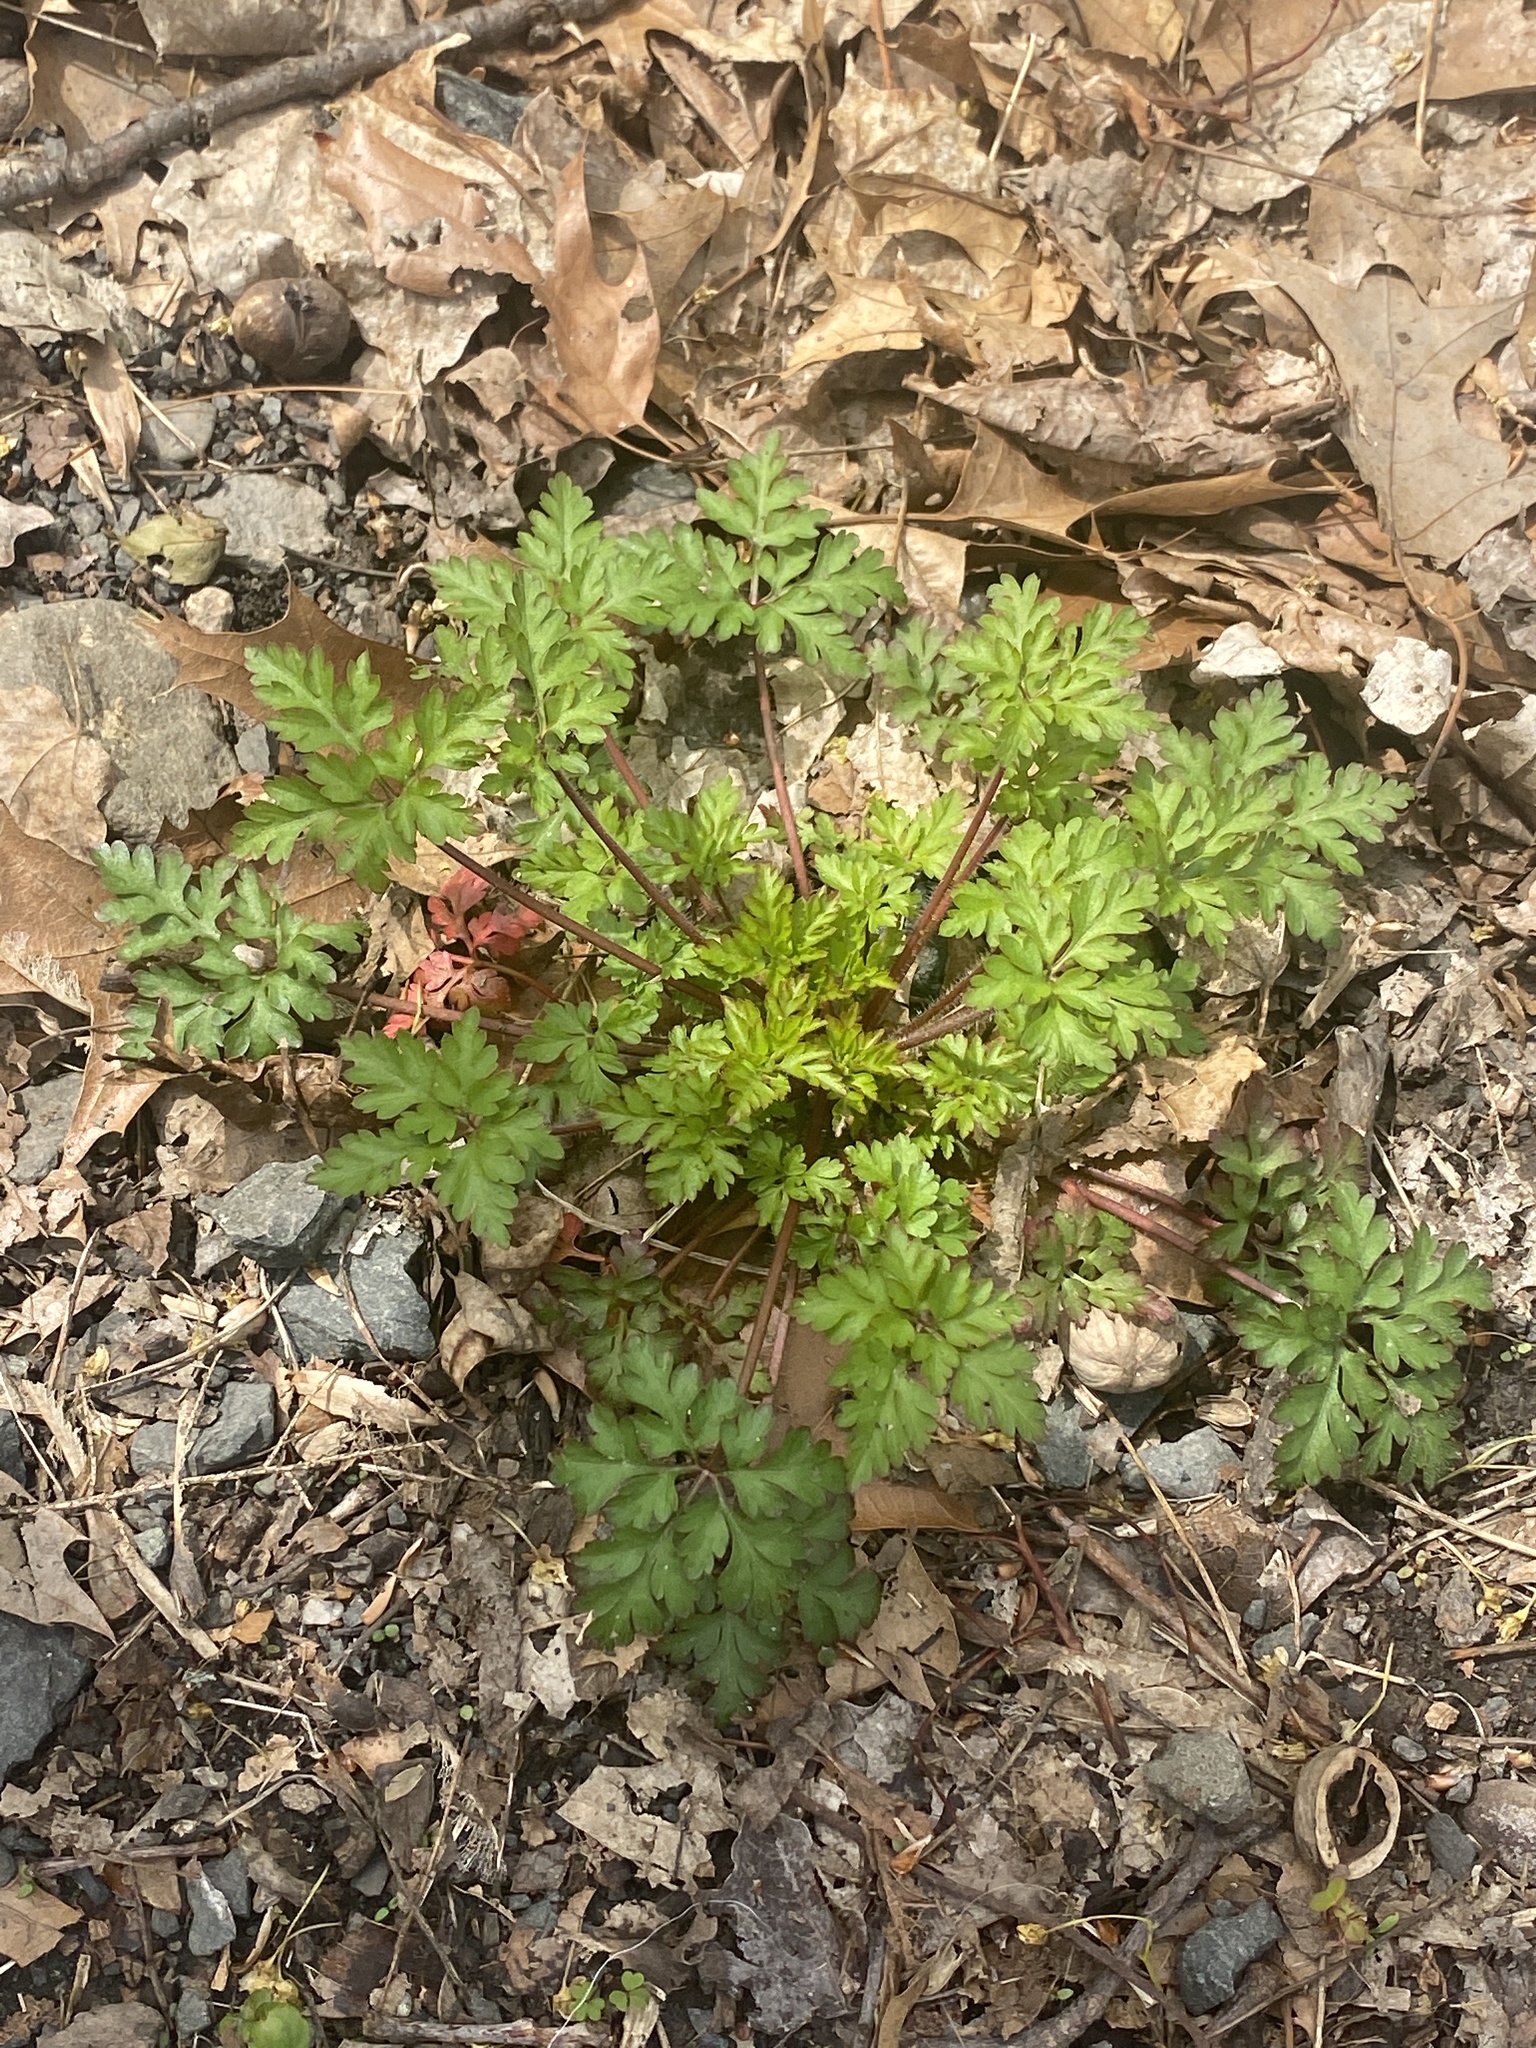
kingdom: Plantae
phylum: Tracheophyta
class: Magnoliopsida
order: Geraniales
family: Geraniaceae
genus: Geranium
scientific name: Geranium robertianum
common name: Herb-robert
